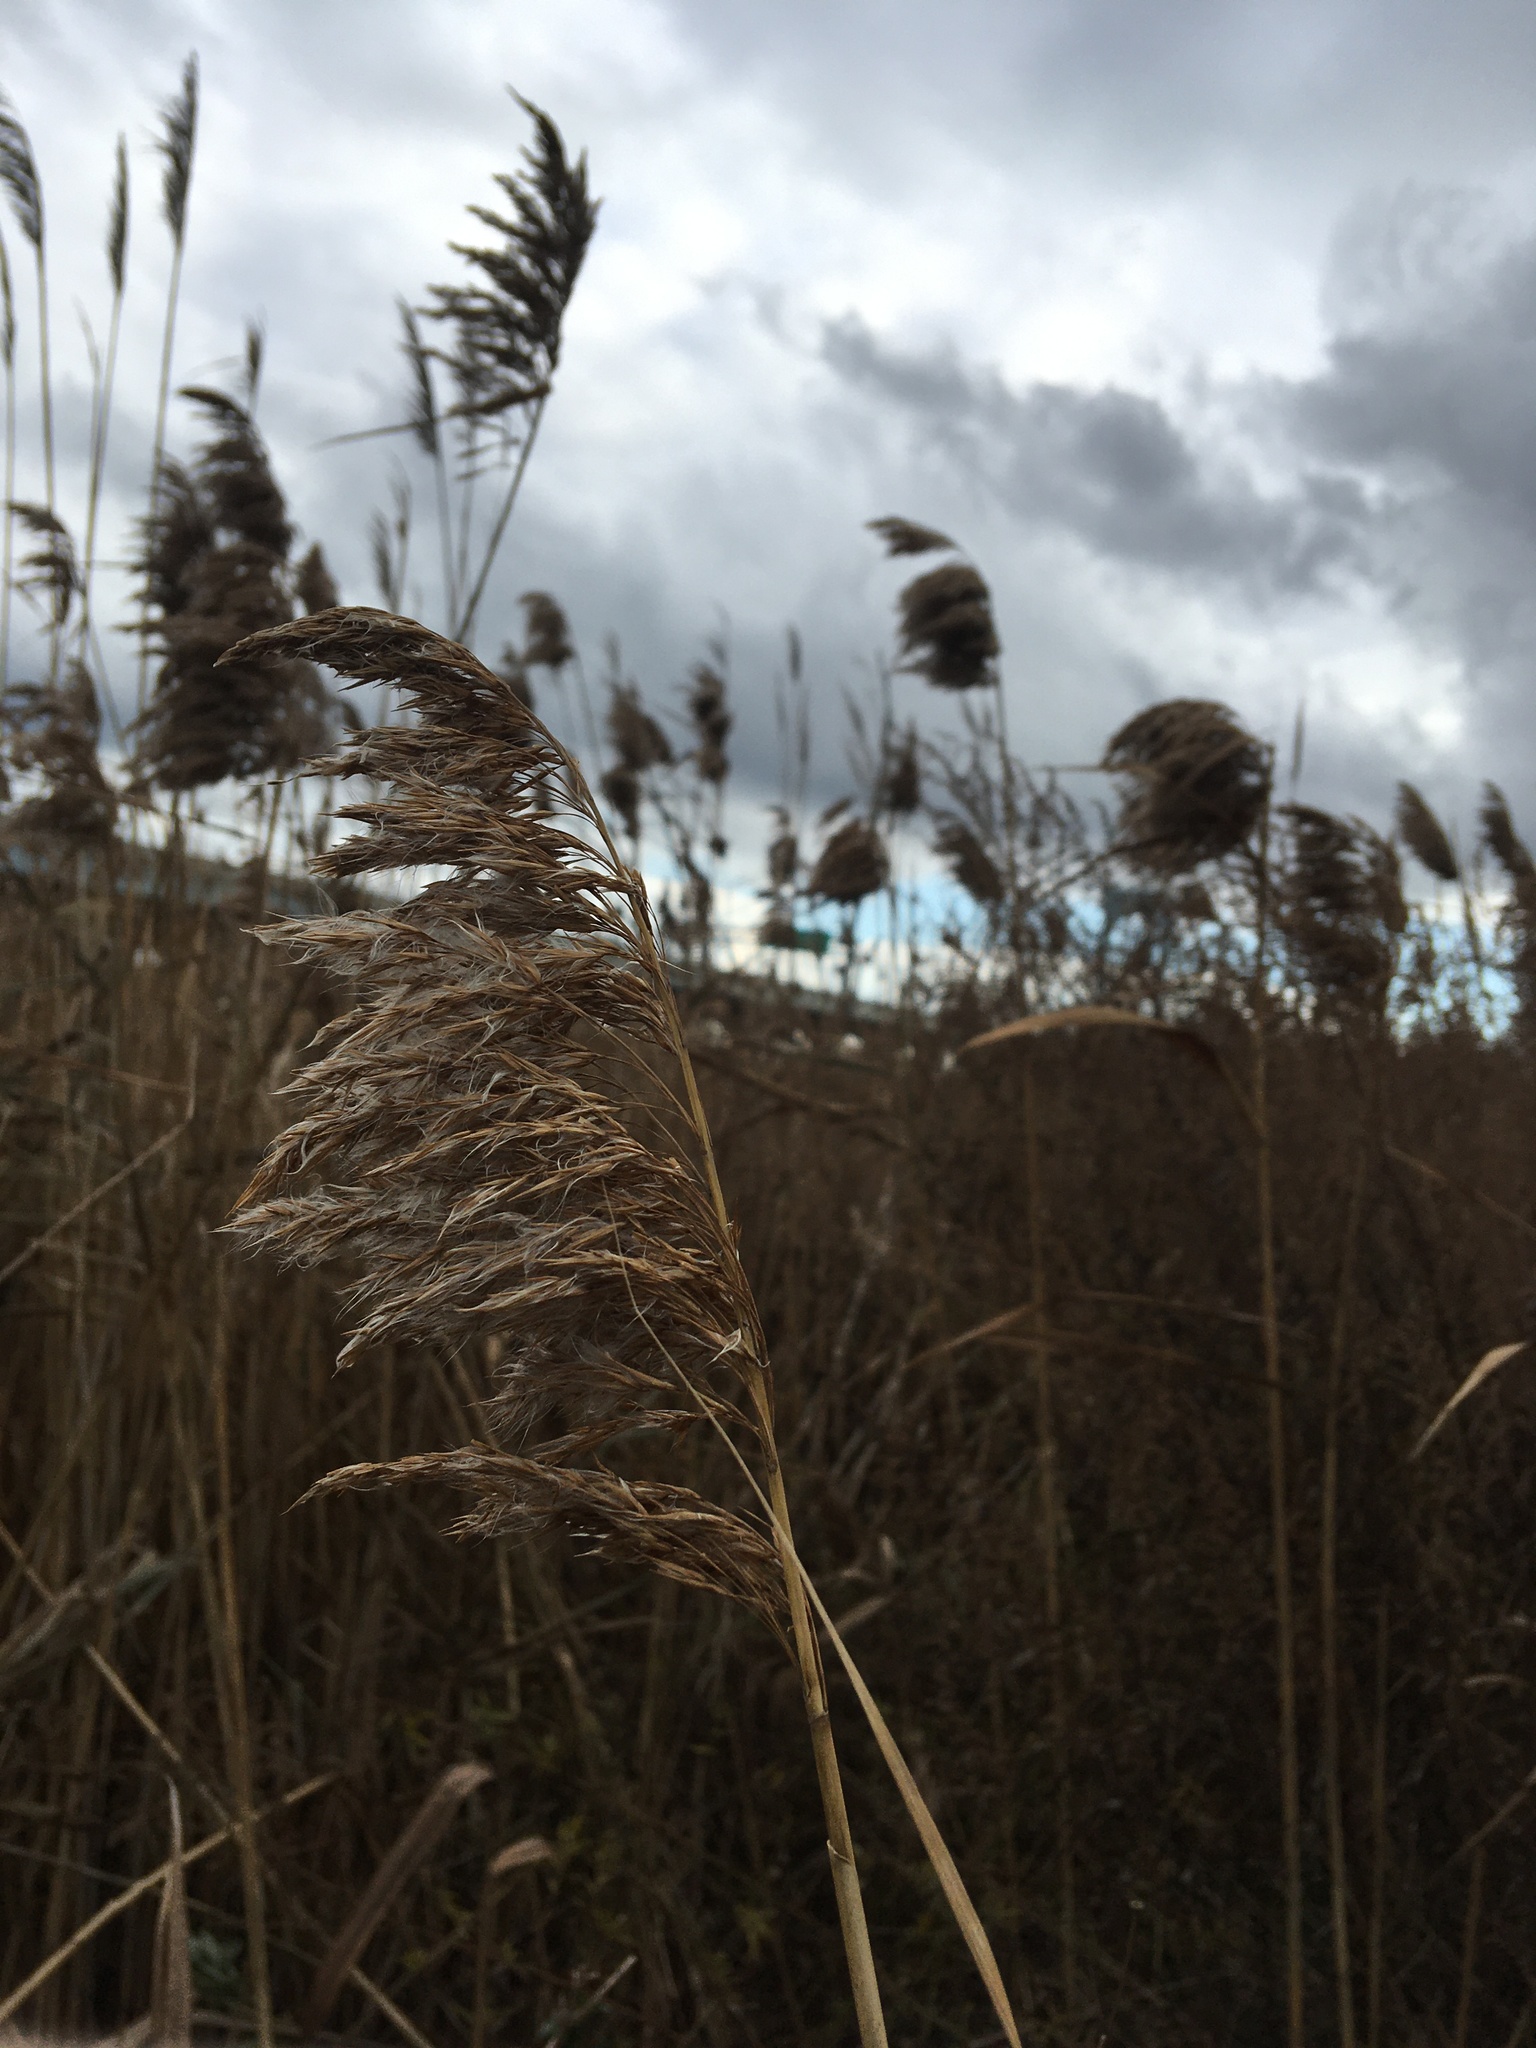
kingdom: Plantae
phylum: Tracheophyta
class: Liliopsida
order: Poales
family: Poaceae
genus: Phragmites
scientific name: Phragmites australis
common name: Common reed
